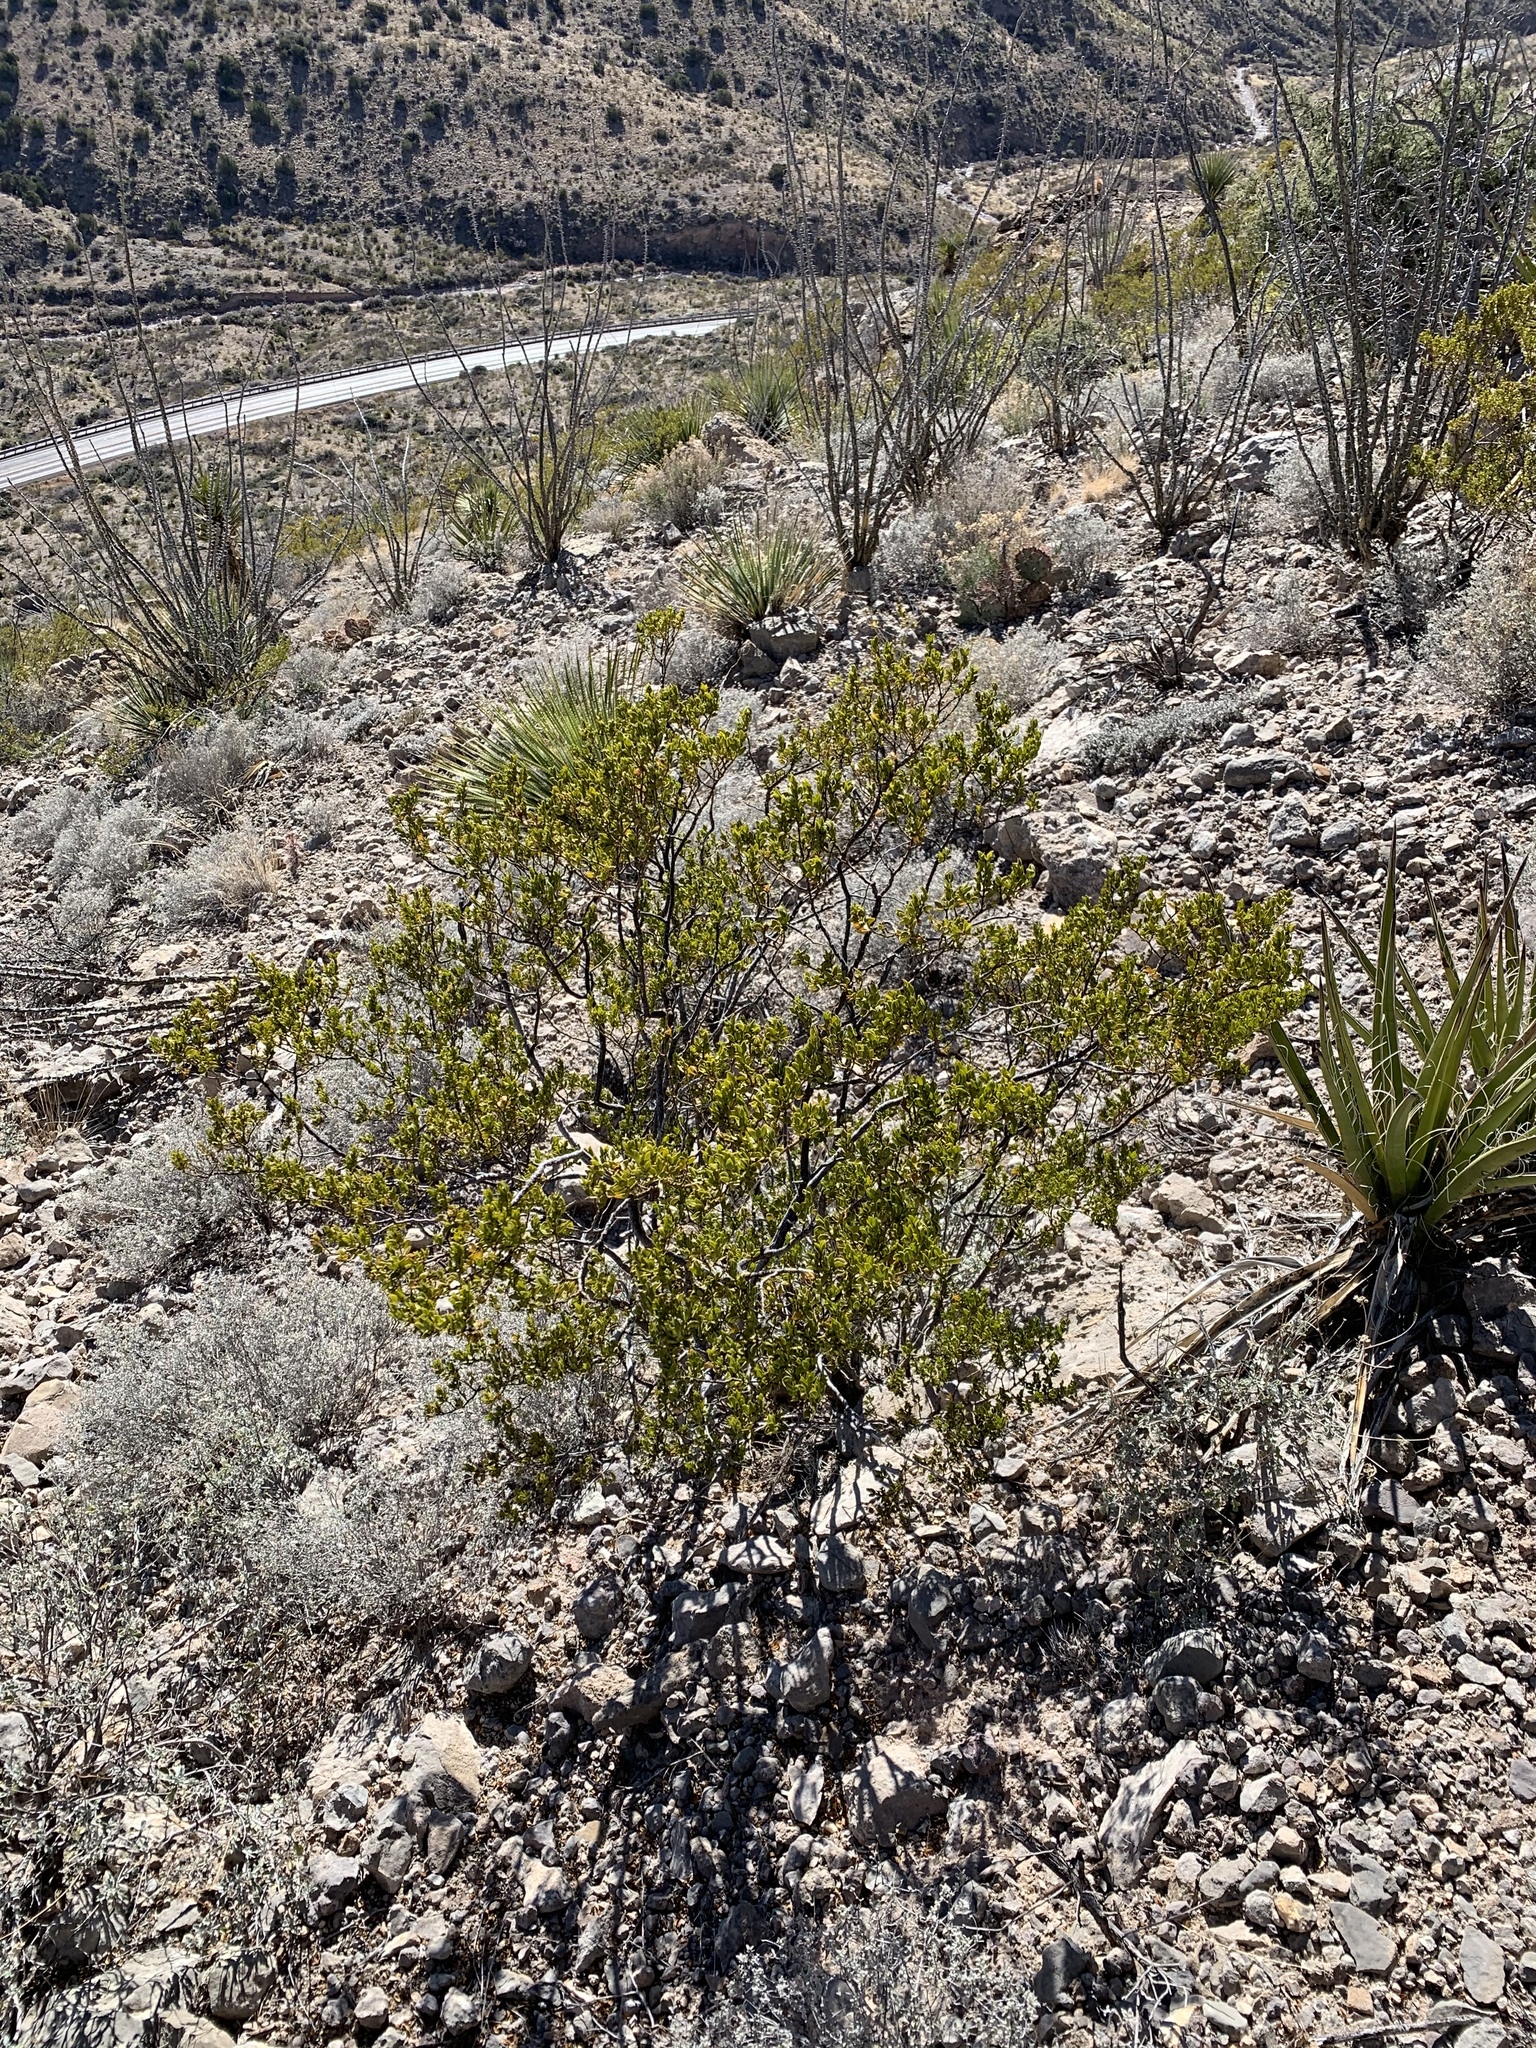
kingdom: Plantae
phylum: Tracheophyta
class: Magnoliopsida
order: Zygophyllales
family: Zygophyllaceae
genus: Larrea
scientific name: Larrea tridentata
